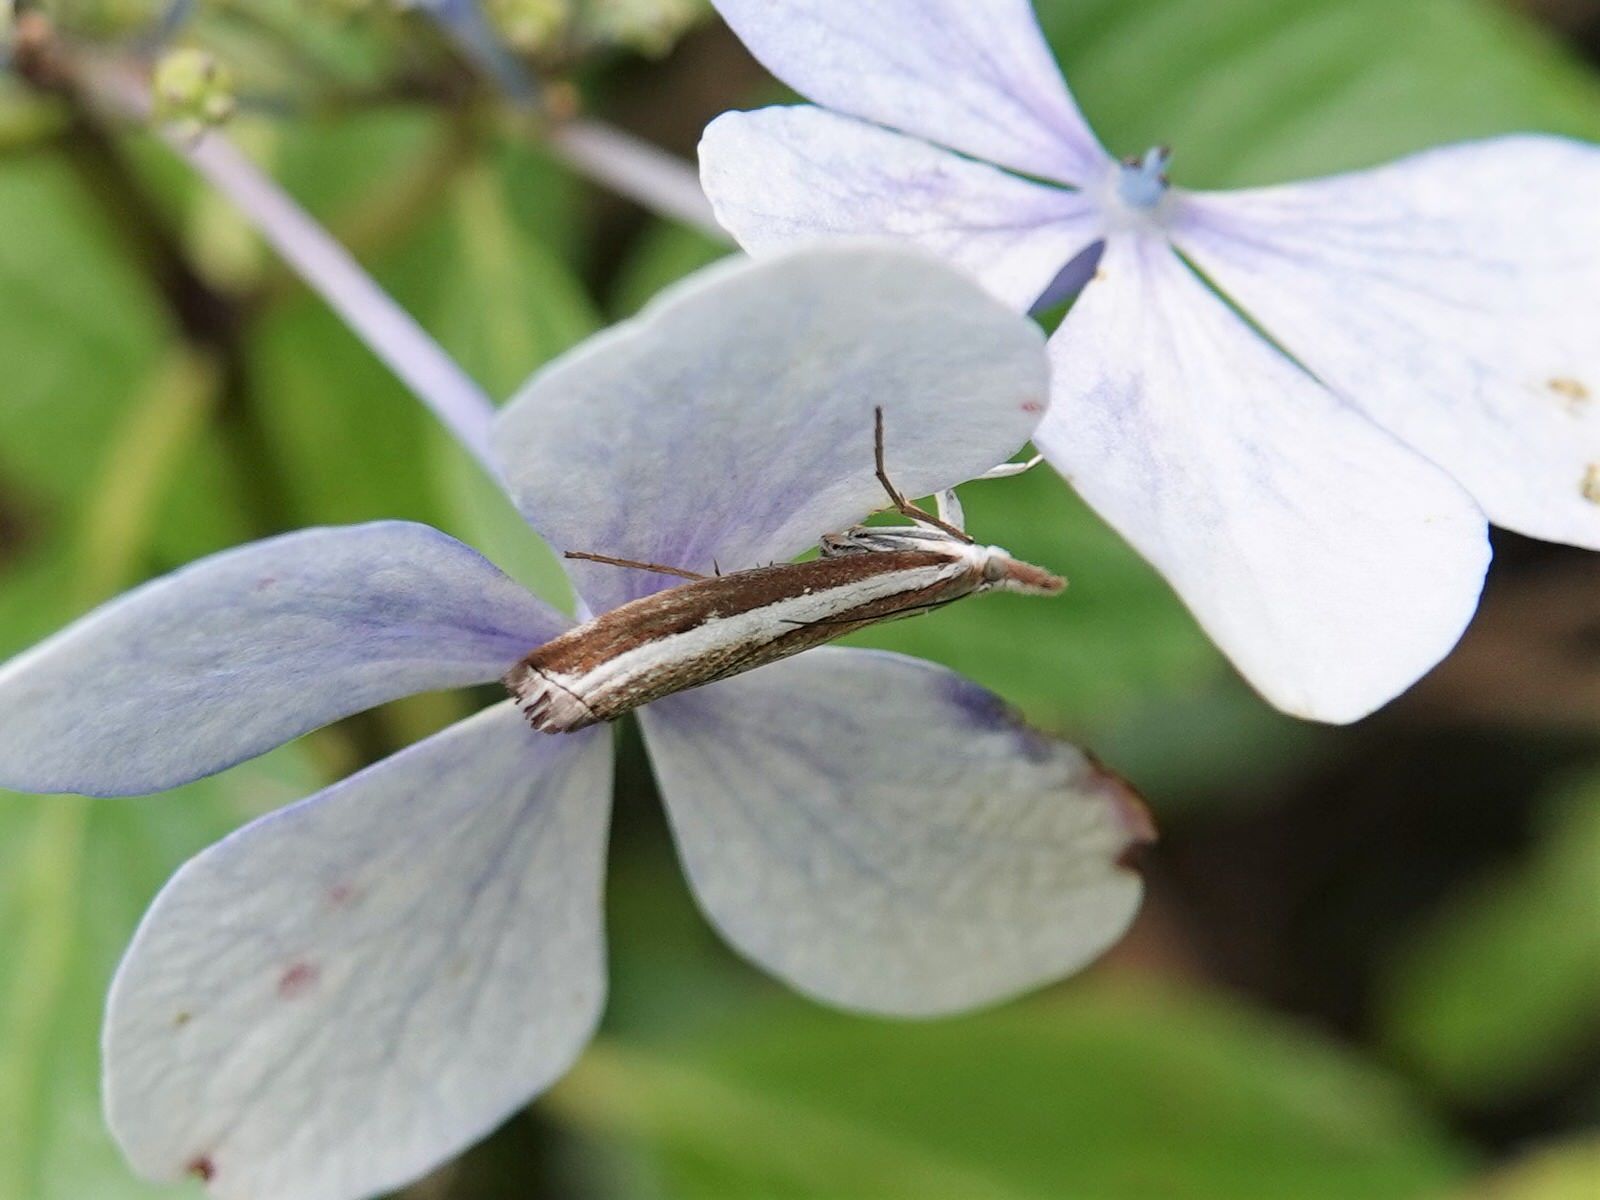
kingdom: Animalia
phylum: Arthropoda
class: Insecta
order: Lepidoptera
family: Crambidae
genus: Orocrambus
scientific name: Orocrambus vittellus
